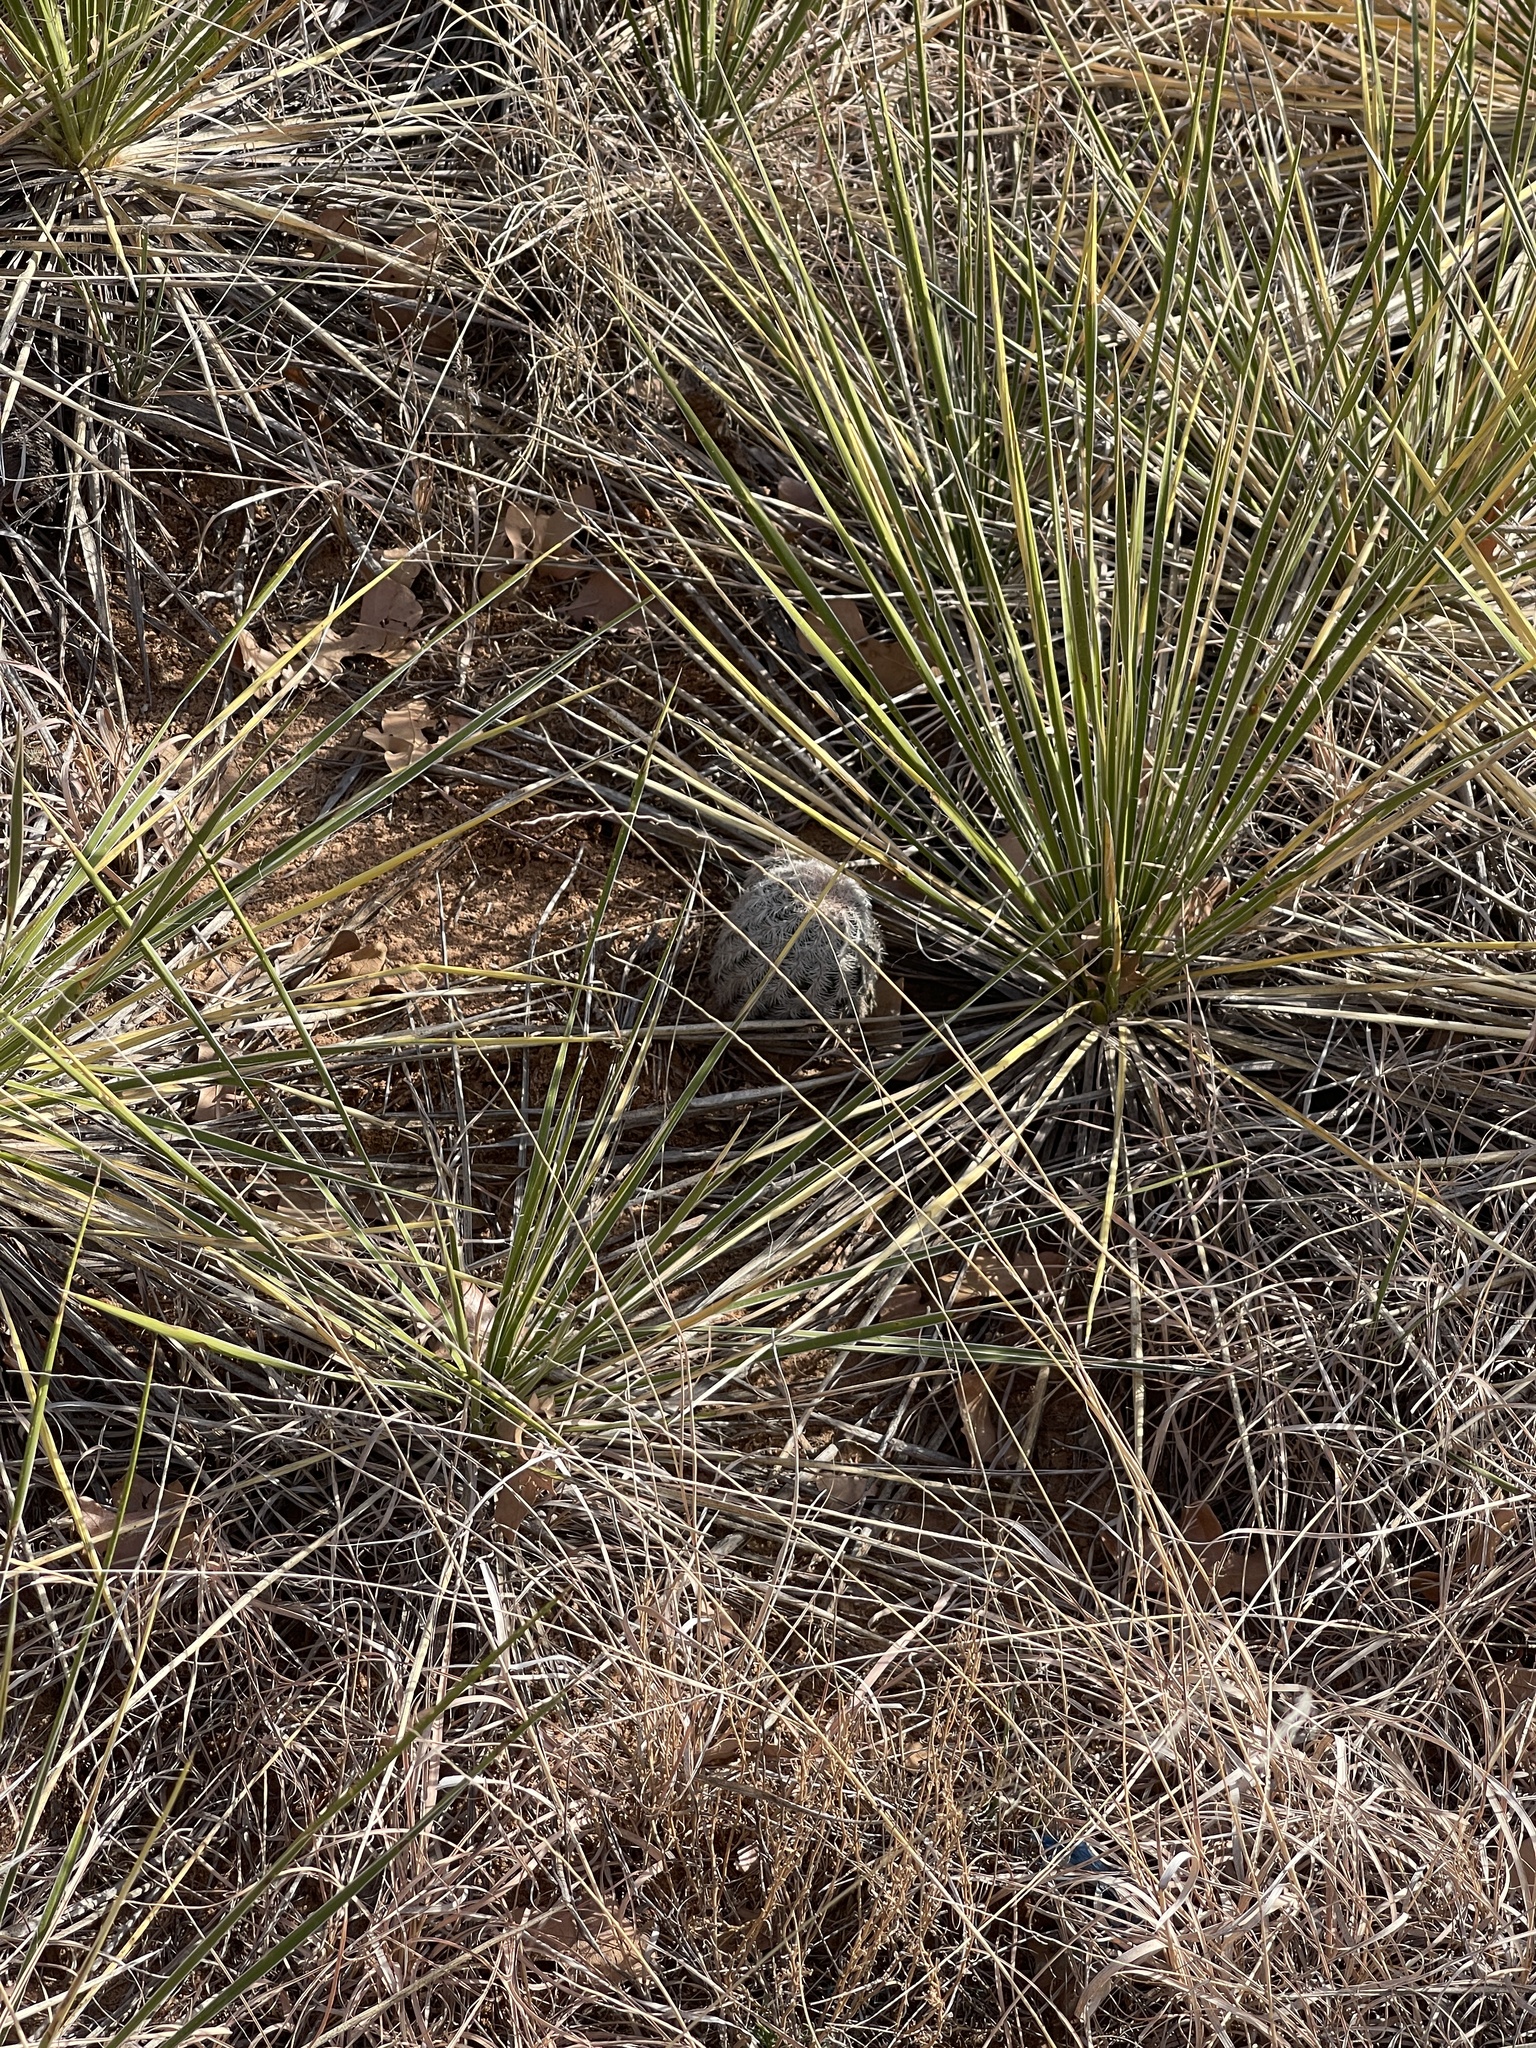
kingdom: Plantae
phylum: Tracheophyta
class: Magnoliopsida
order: Caryophyllales
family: Cactaceae
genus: Echinocereus
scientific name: Echinocereus reichenbachii
